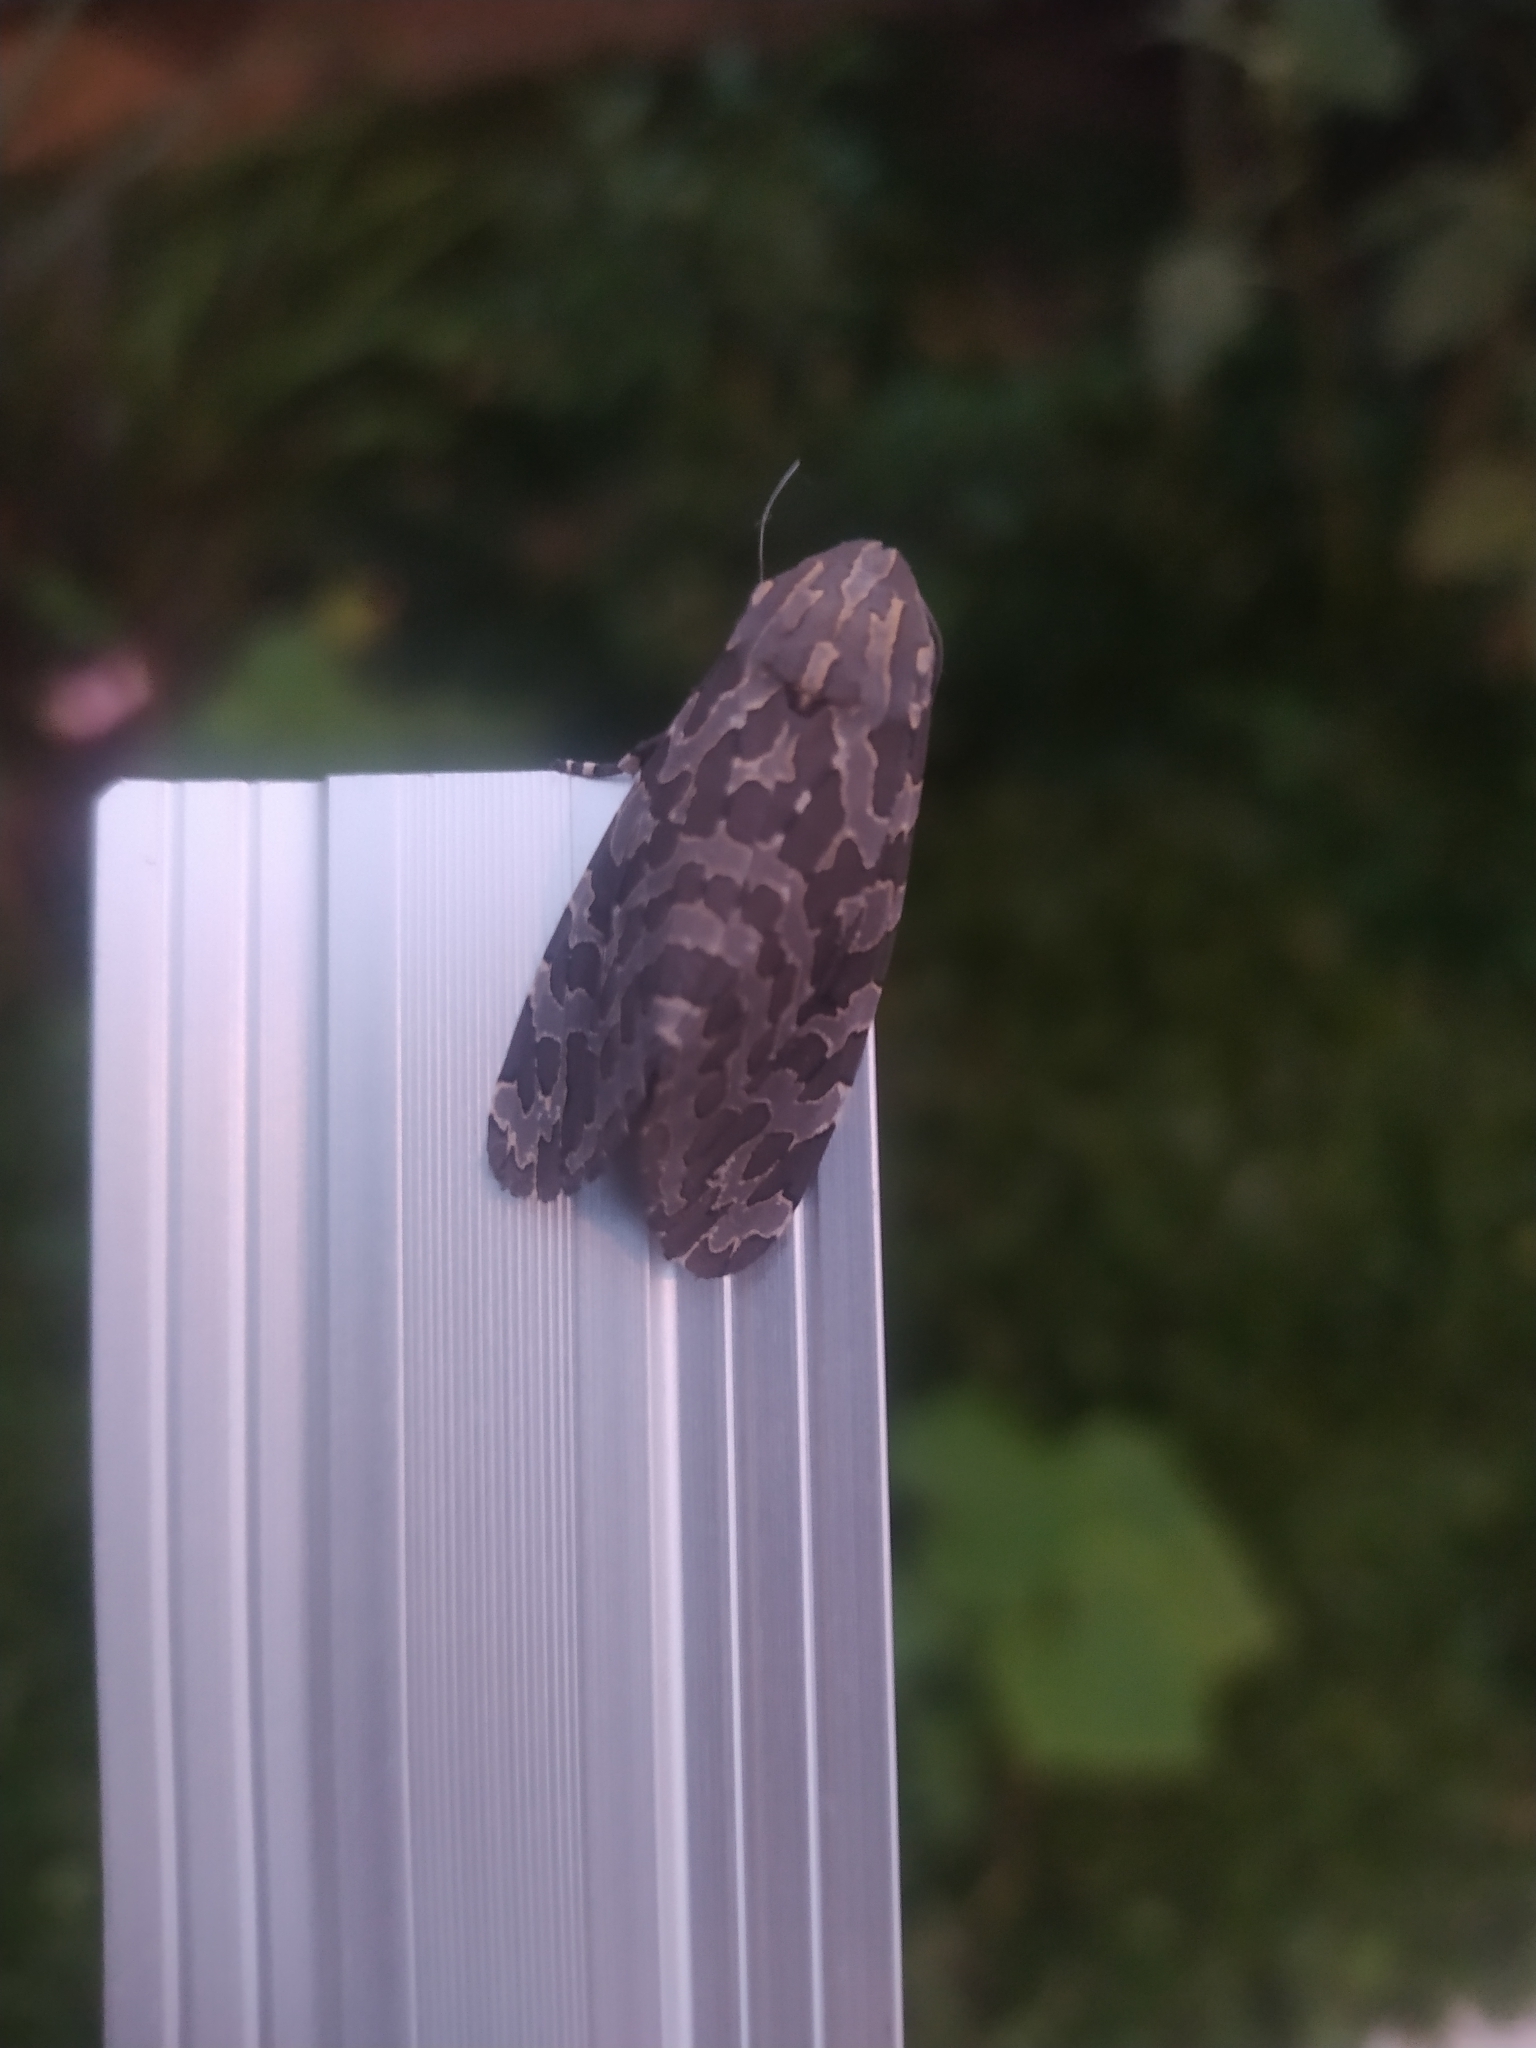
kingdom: Animalia
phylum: Arthropoda
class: Insecta
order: Lepidoptera
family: Erebidae
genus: Hypercompe
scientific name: Hypercompe indecisa
